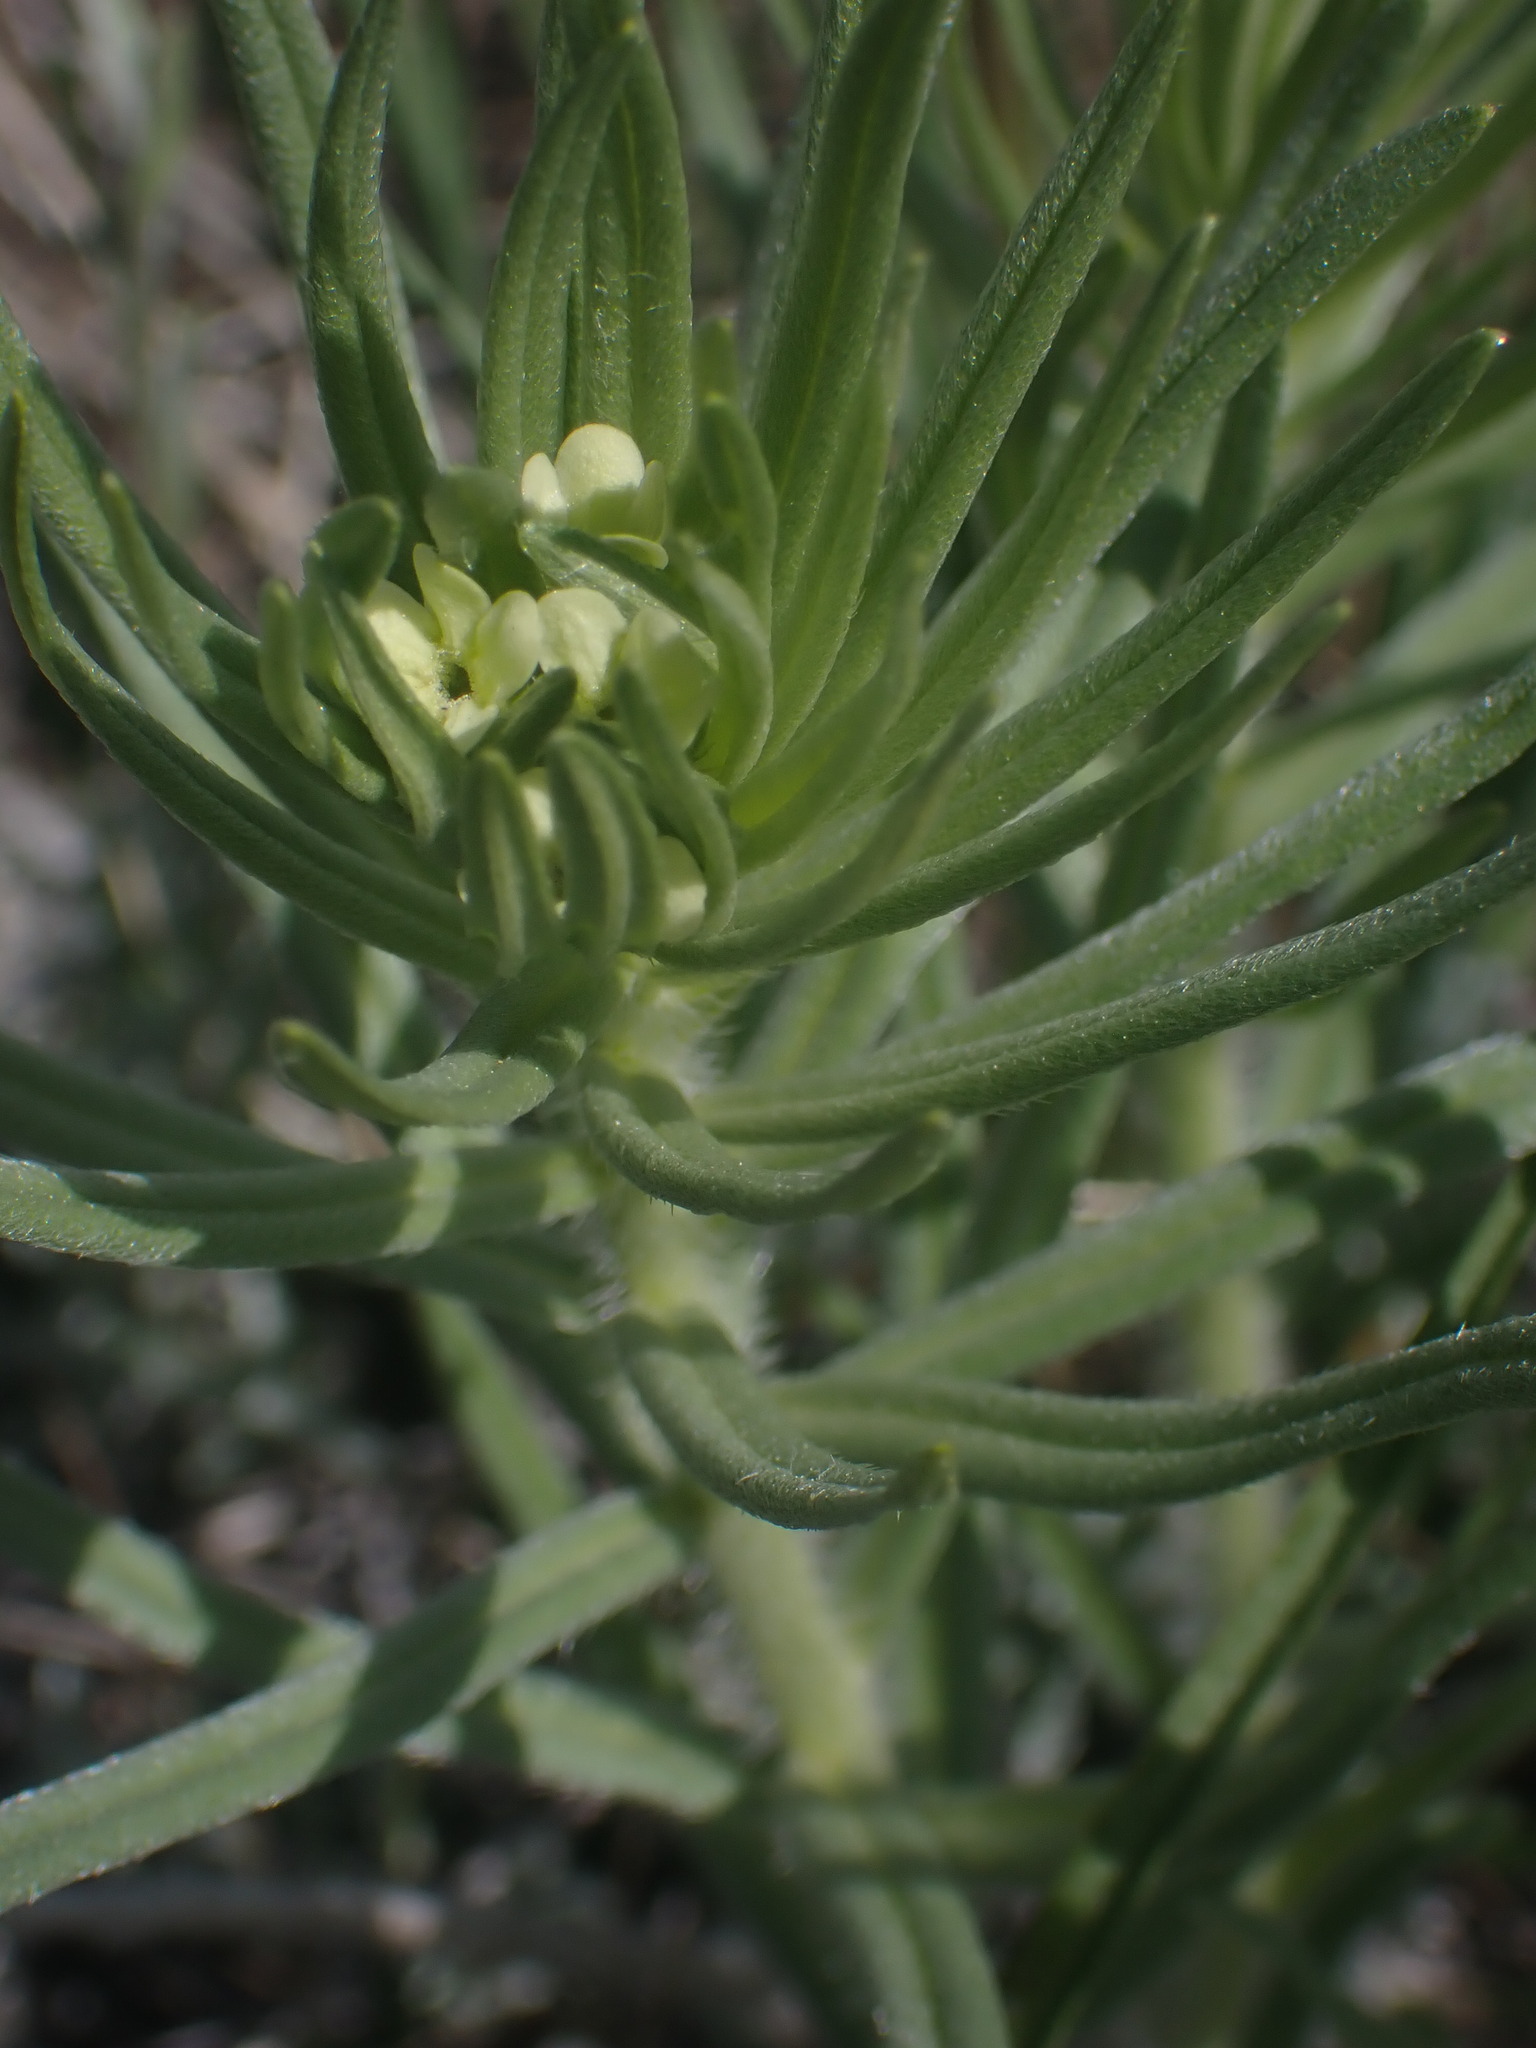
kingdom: Plantae
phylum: Tracheophyta
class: Magnoliopsida
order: Boraginales
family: Boraginaceae
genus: Lithospermum
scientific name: Lithospermum ruderale
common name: Western gromwell
